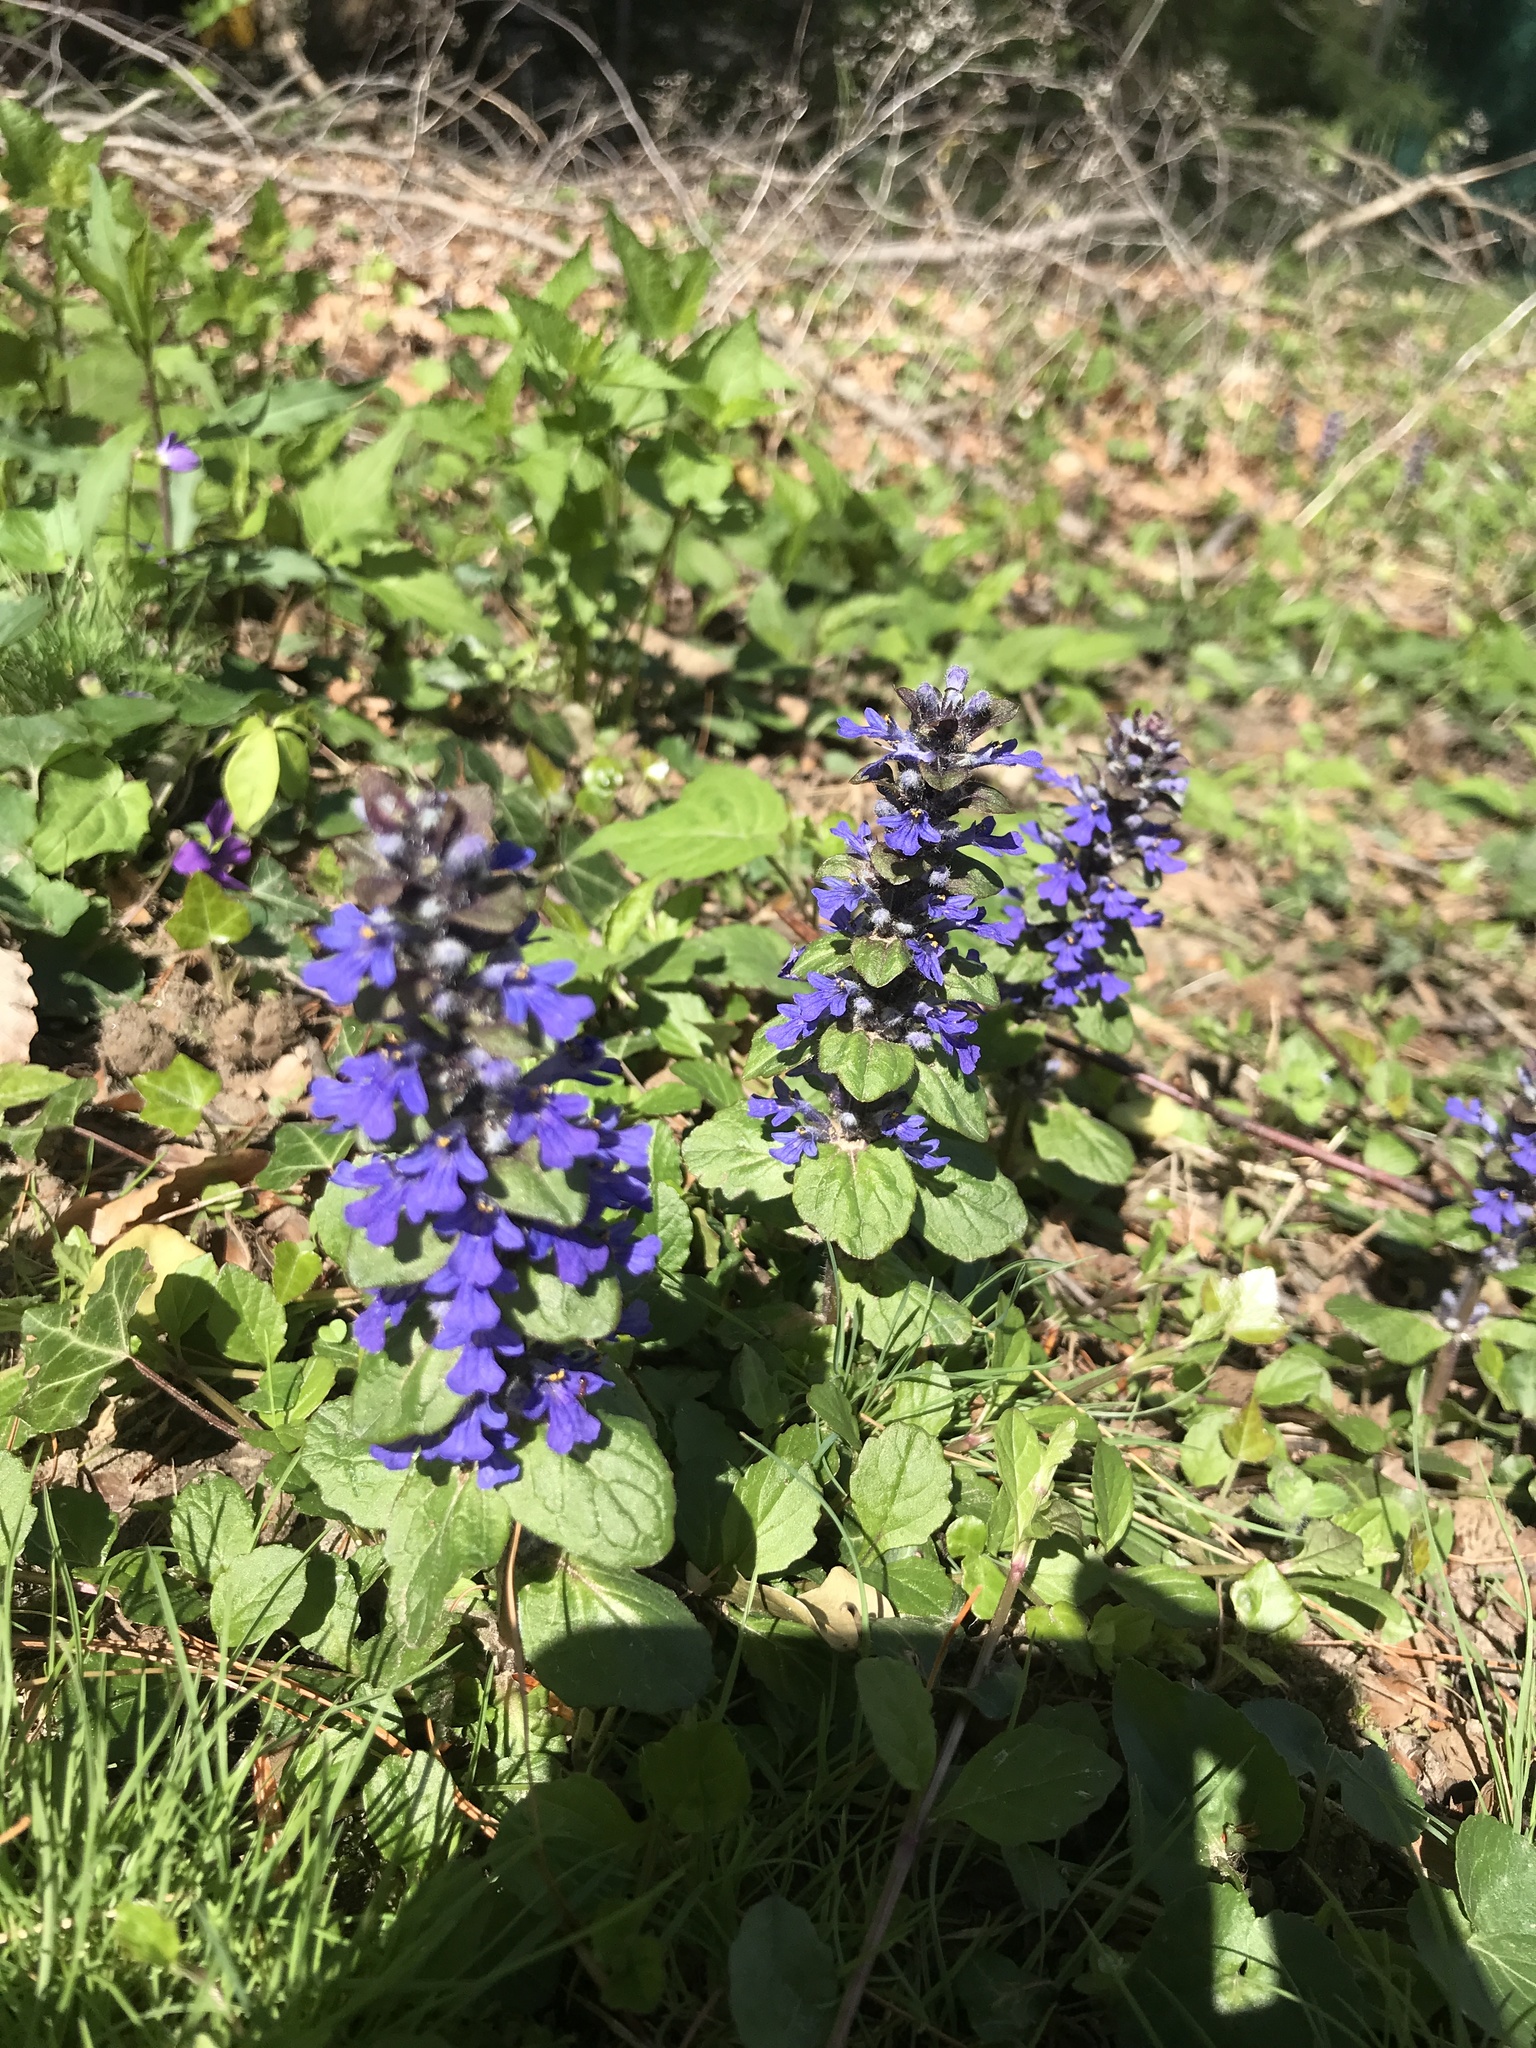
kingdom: Plantae
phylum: Tracheophyta
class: Magnoliopsida
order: Lamiales
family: Lamiaceae
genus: Ajuga
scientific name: Ajuga reptans
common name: Bugle
